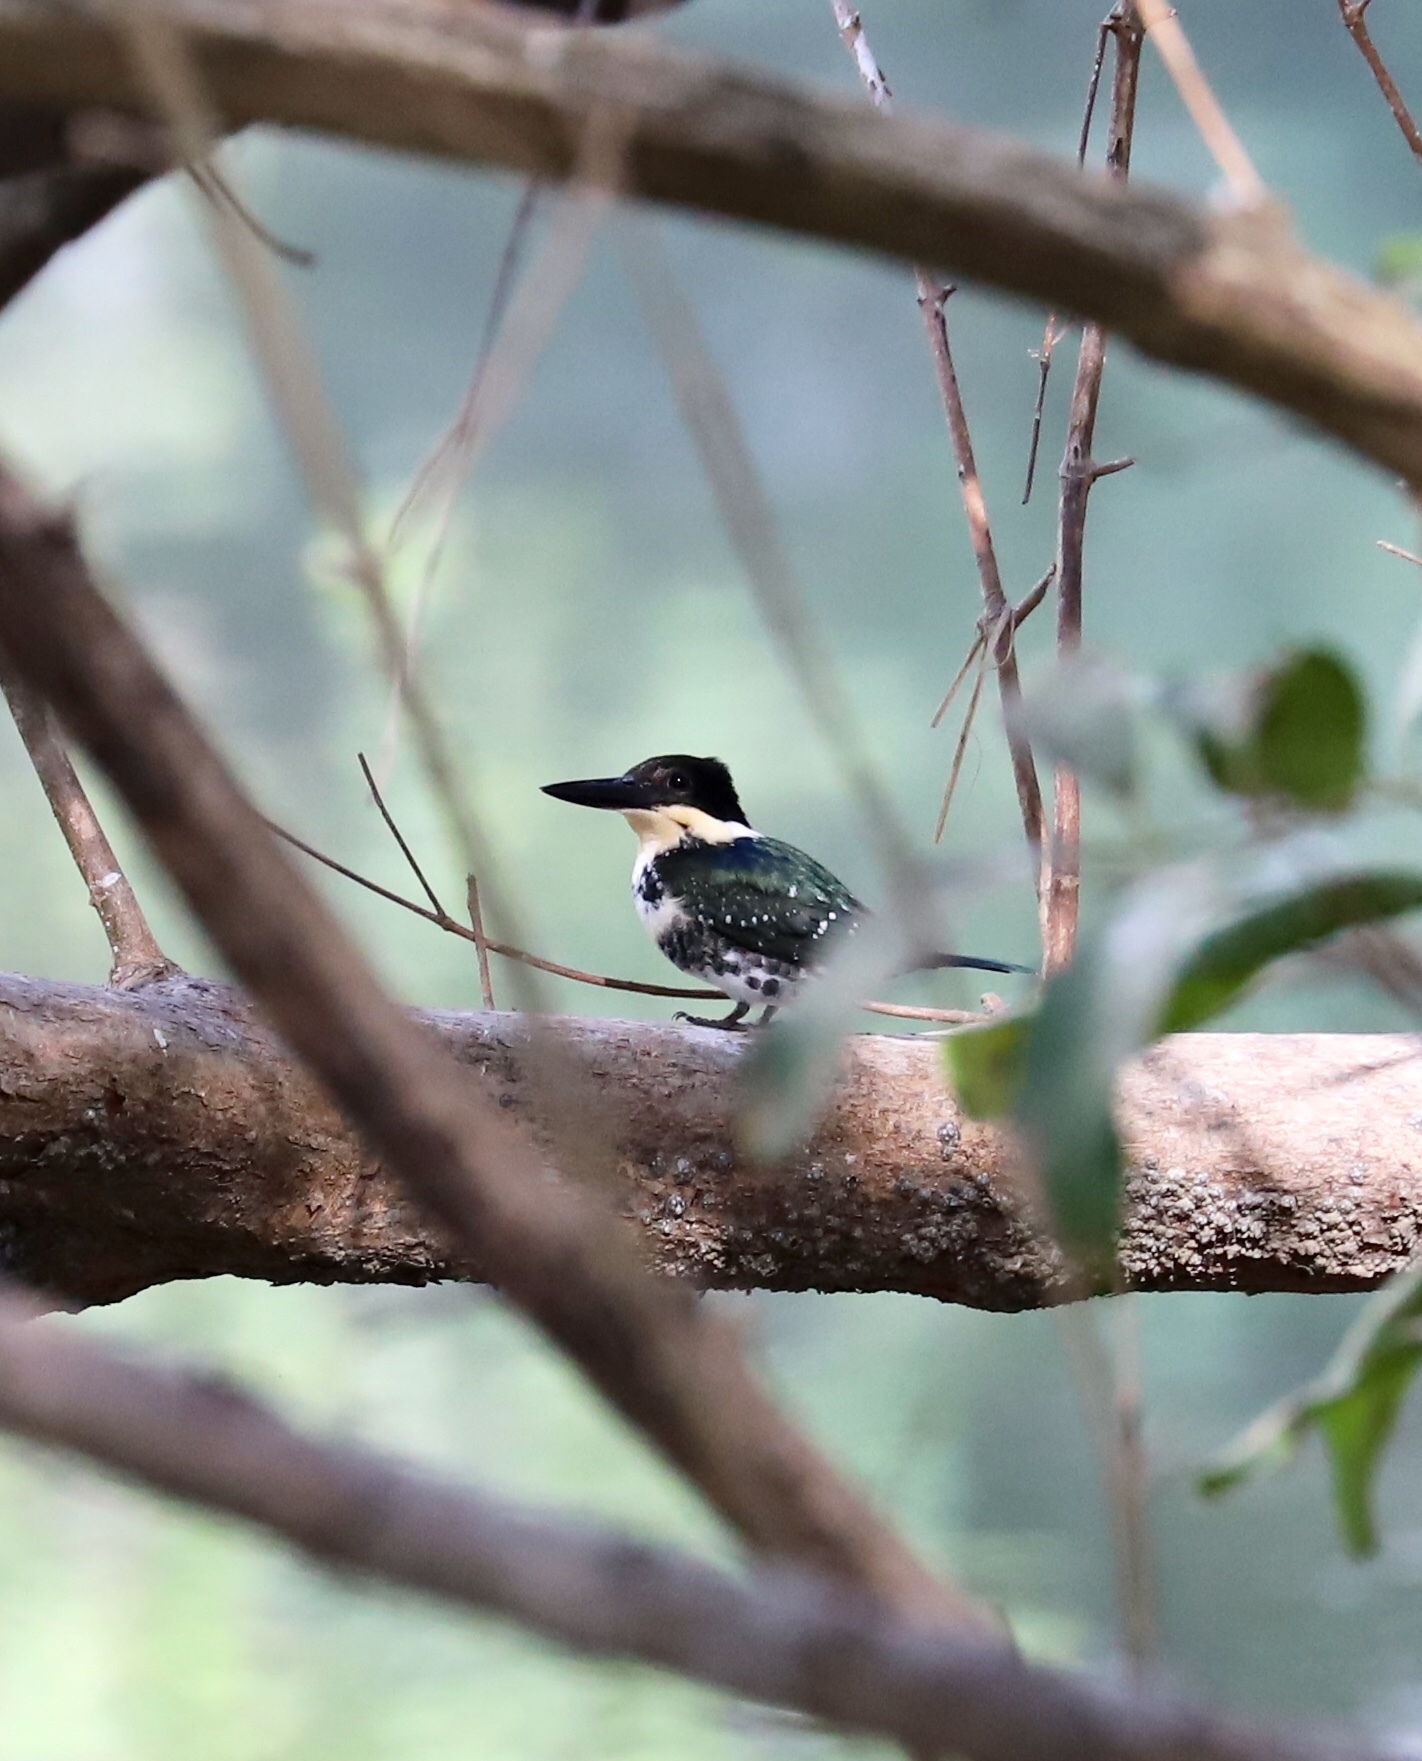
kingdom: Animalia
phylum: Chordata
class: Aves
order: Coraciiformes
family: Alcedinidae
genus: Chloroceryle
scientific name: Chloroceryle americana
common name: Green kingfisher
